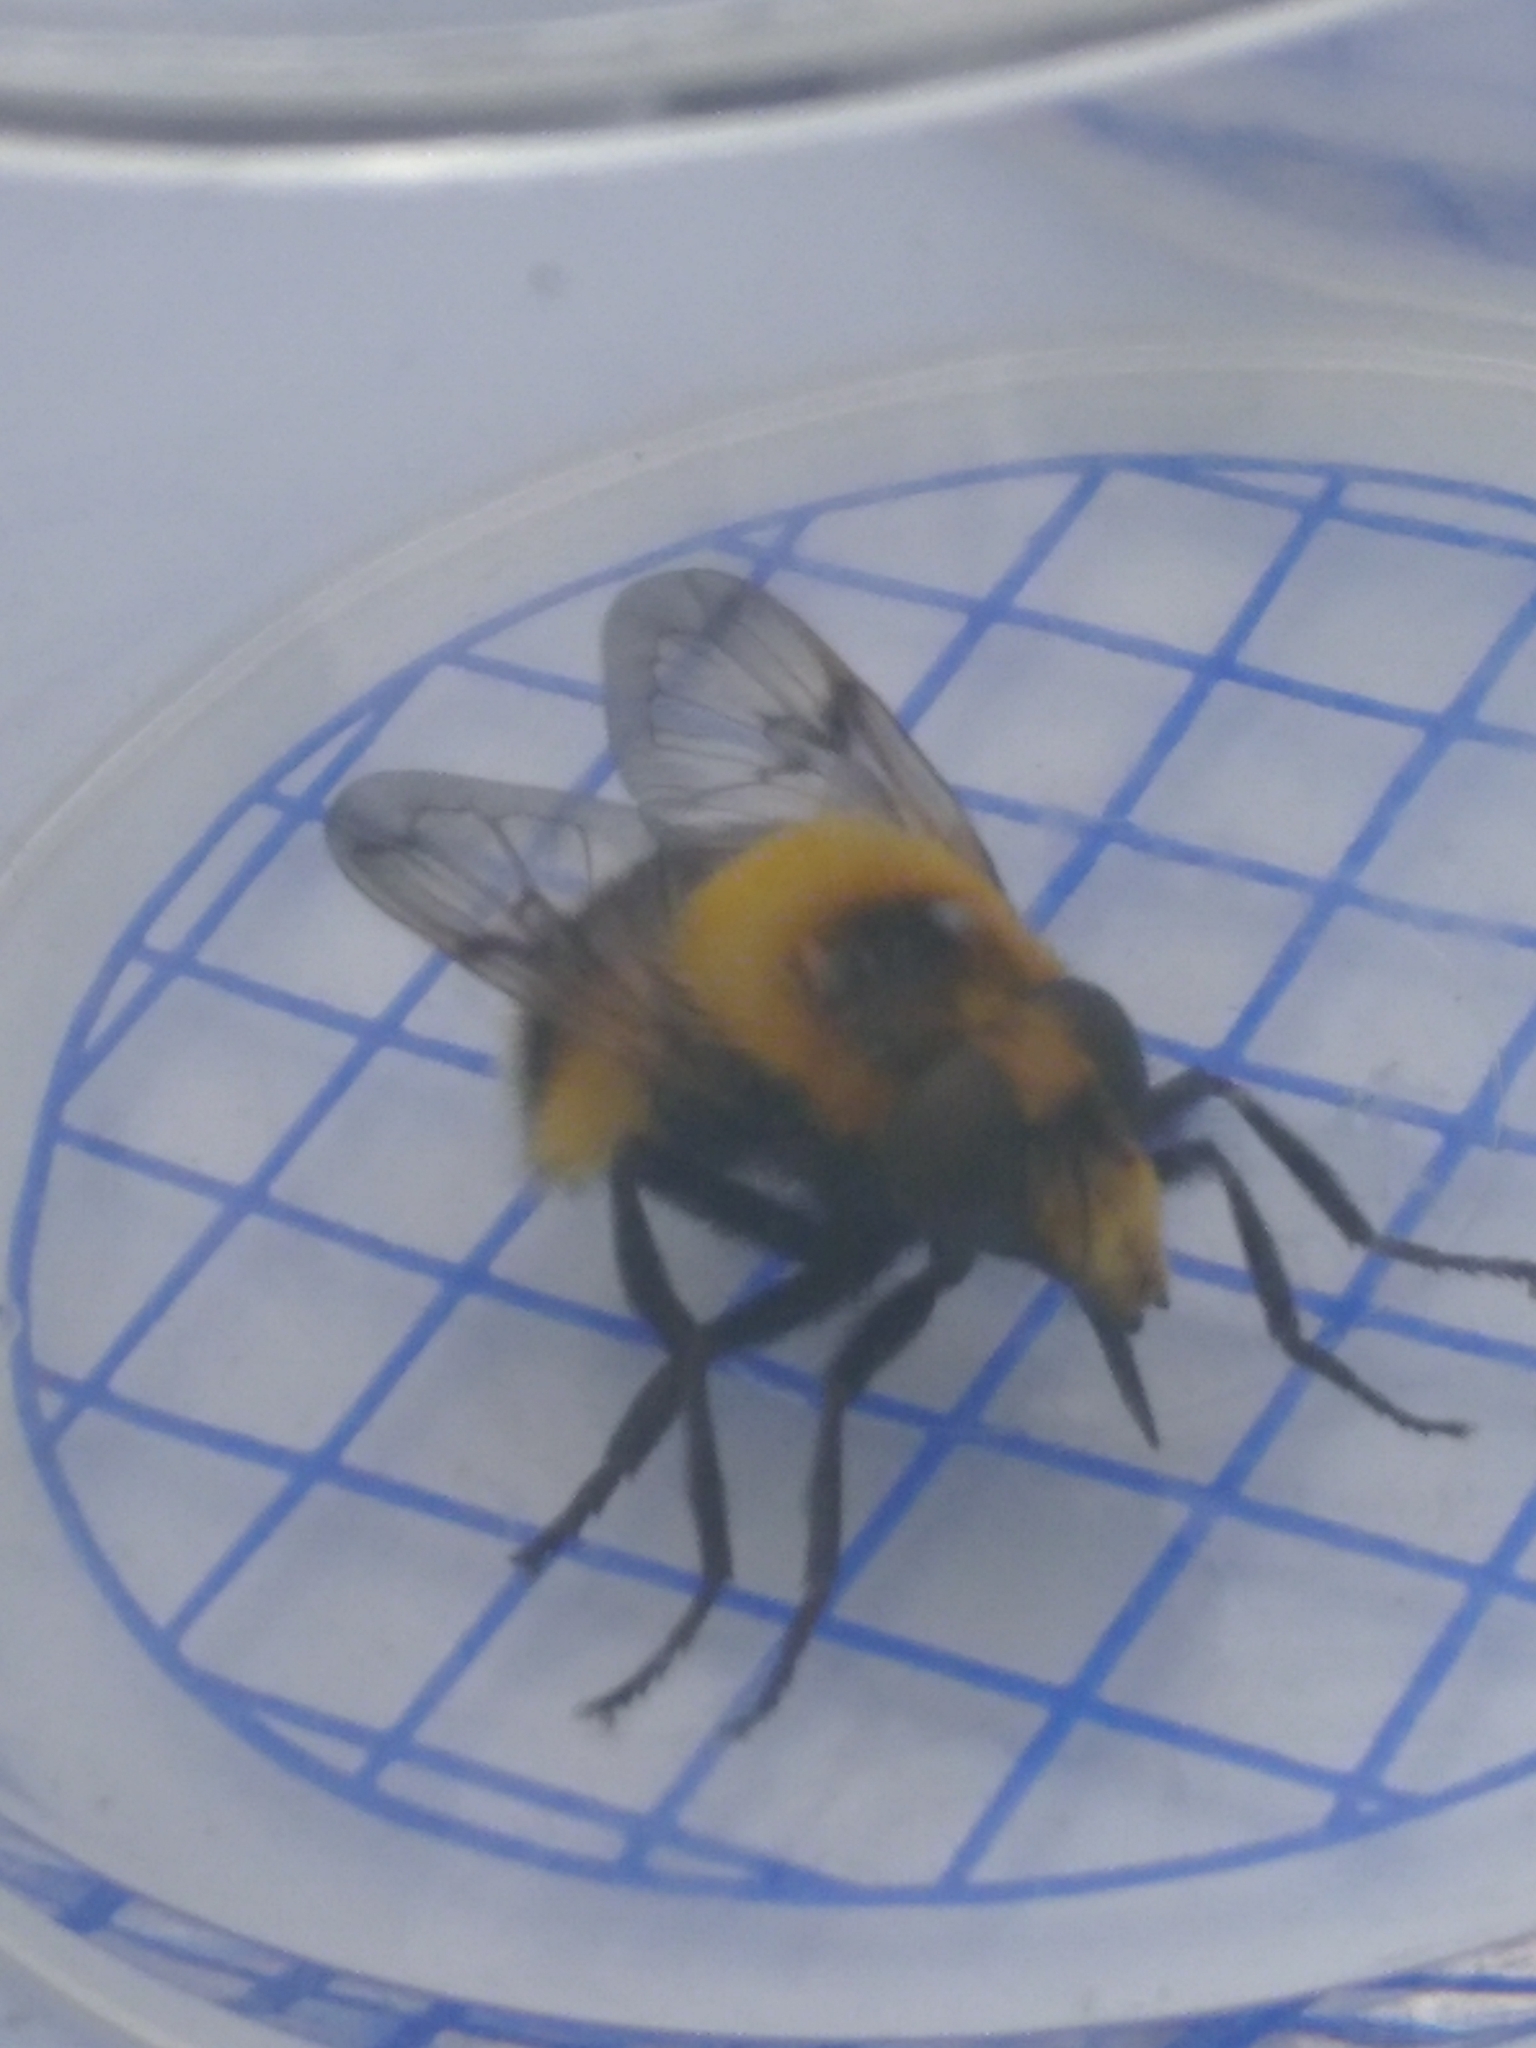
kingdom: Animalia
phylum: Arthropoda
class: Insecta
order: Diptera
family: Syrphidae
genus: Volucella
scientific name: Volucella bombylans
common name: Bumble bee hover fly
